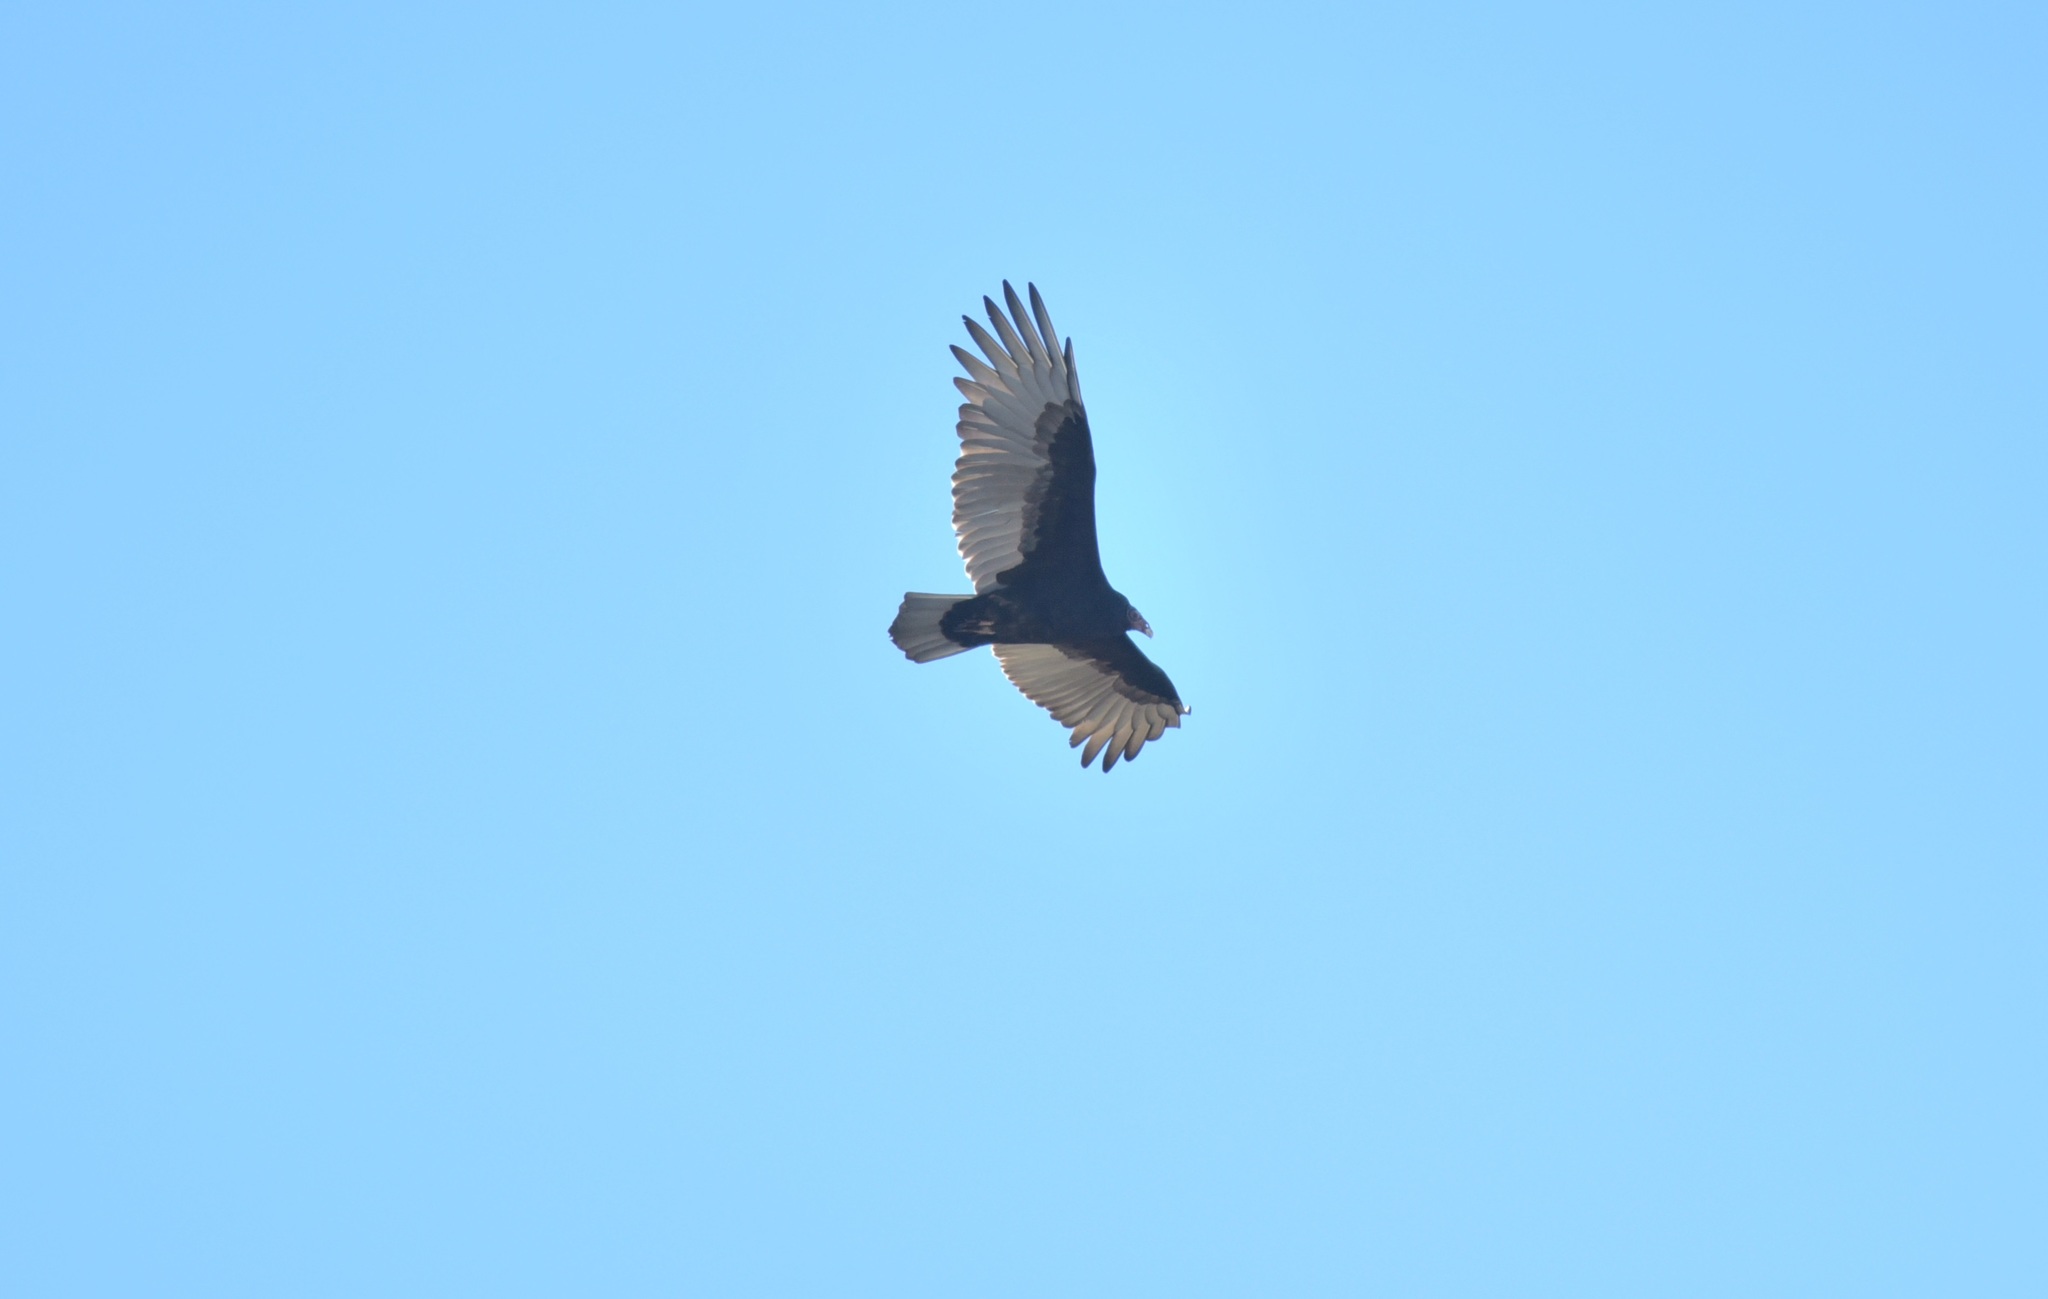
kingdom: Animalia
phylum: Chordata
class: Aves
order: Accipitriformes
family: Cathartidae
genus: Cathartes
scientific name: Cathartes aura
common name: Turkey vulture
